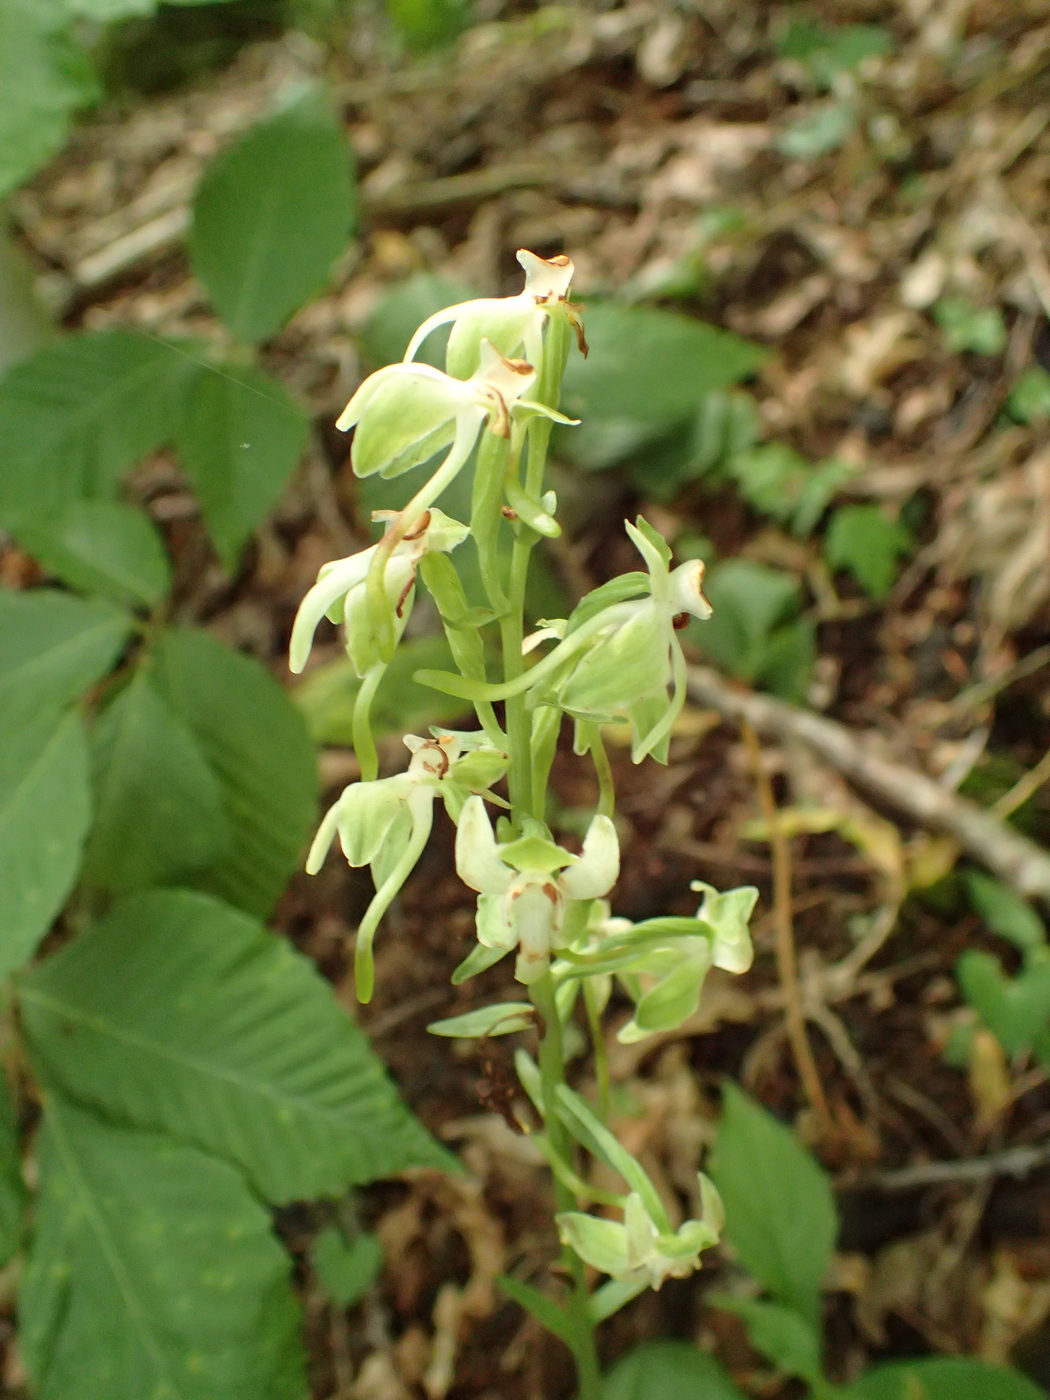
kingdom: Plantae
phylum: Tracheophyta
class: Liliopsida
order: Asparagales
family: Orchidaceae
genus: Platanthera
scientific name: Platanthera orbiculata
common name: Large round-leaved orchid
